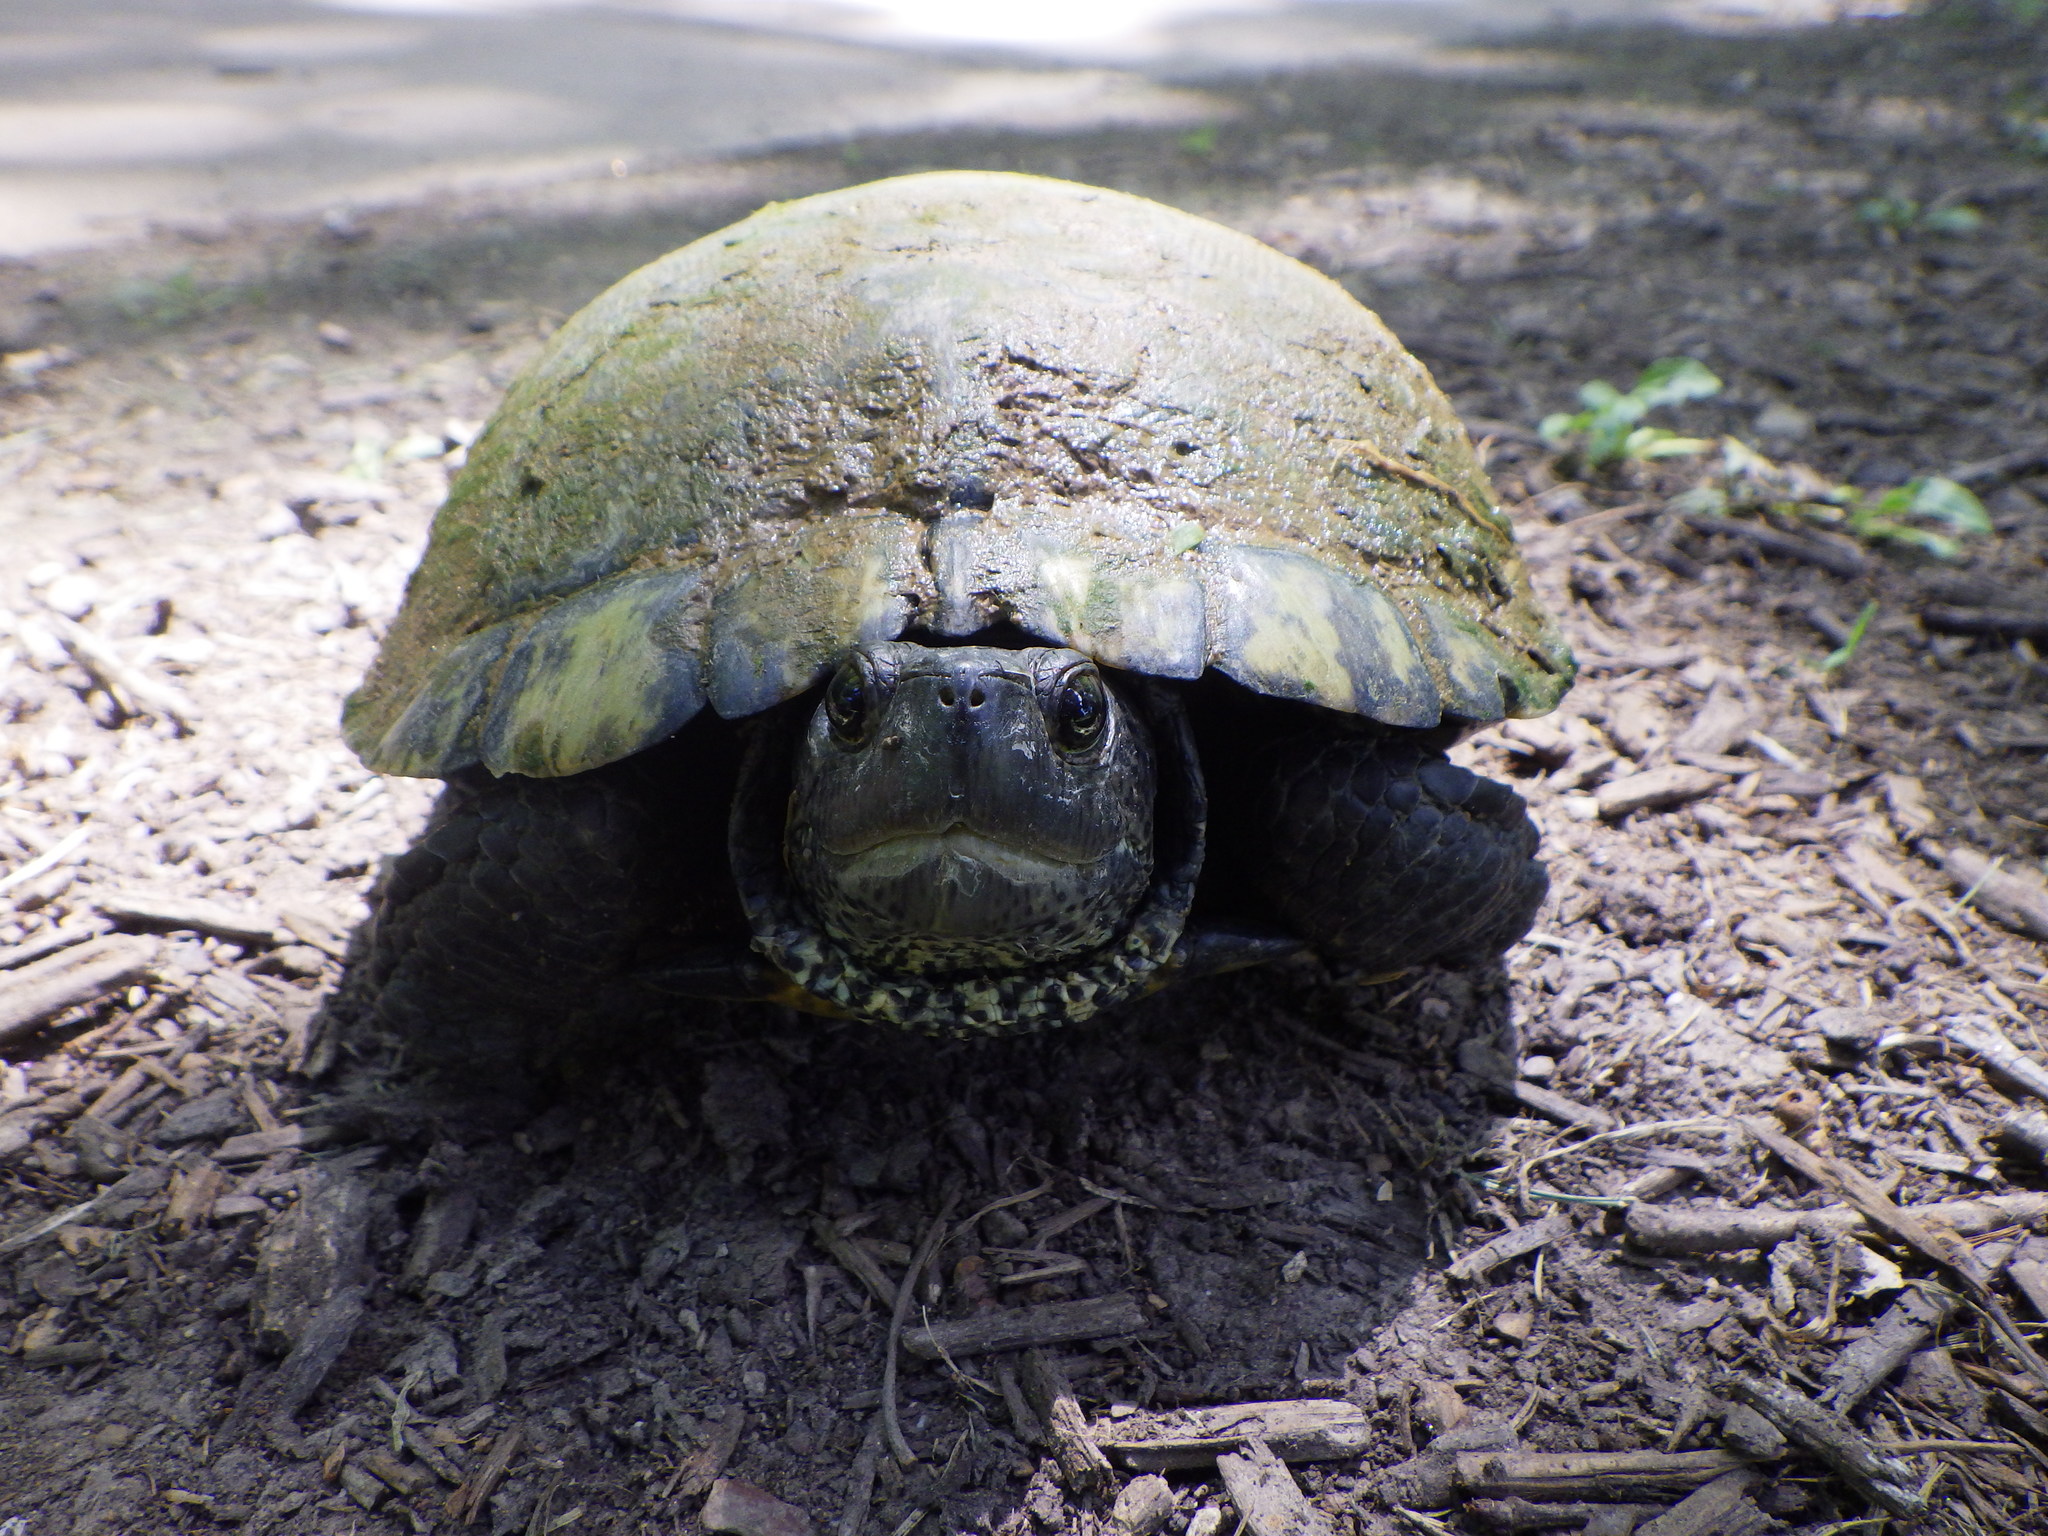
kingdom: Animalia
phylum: Chordata
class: Testudines
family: Emydidae
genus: Trachemys
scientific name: Trachemys scripta
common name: Slider
